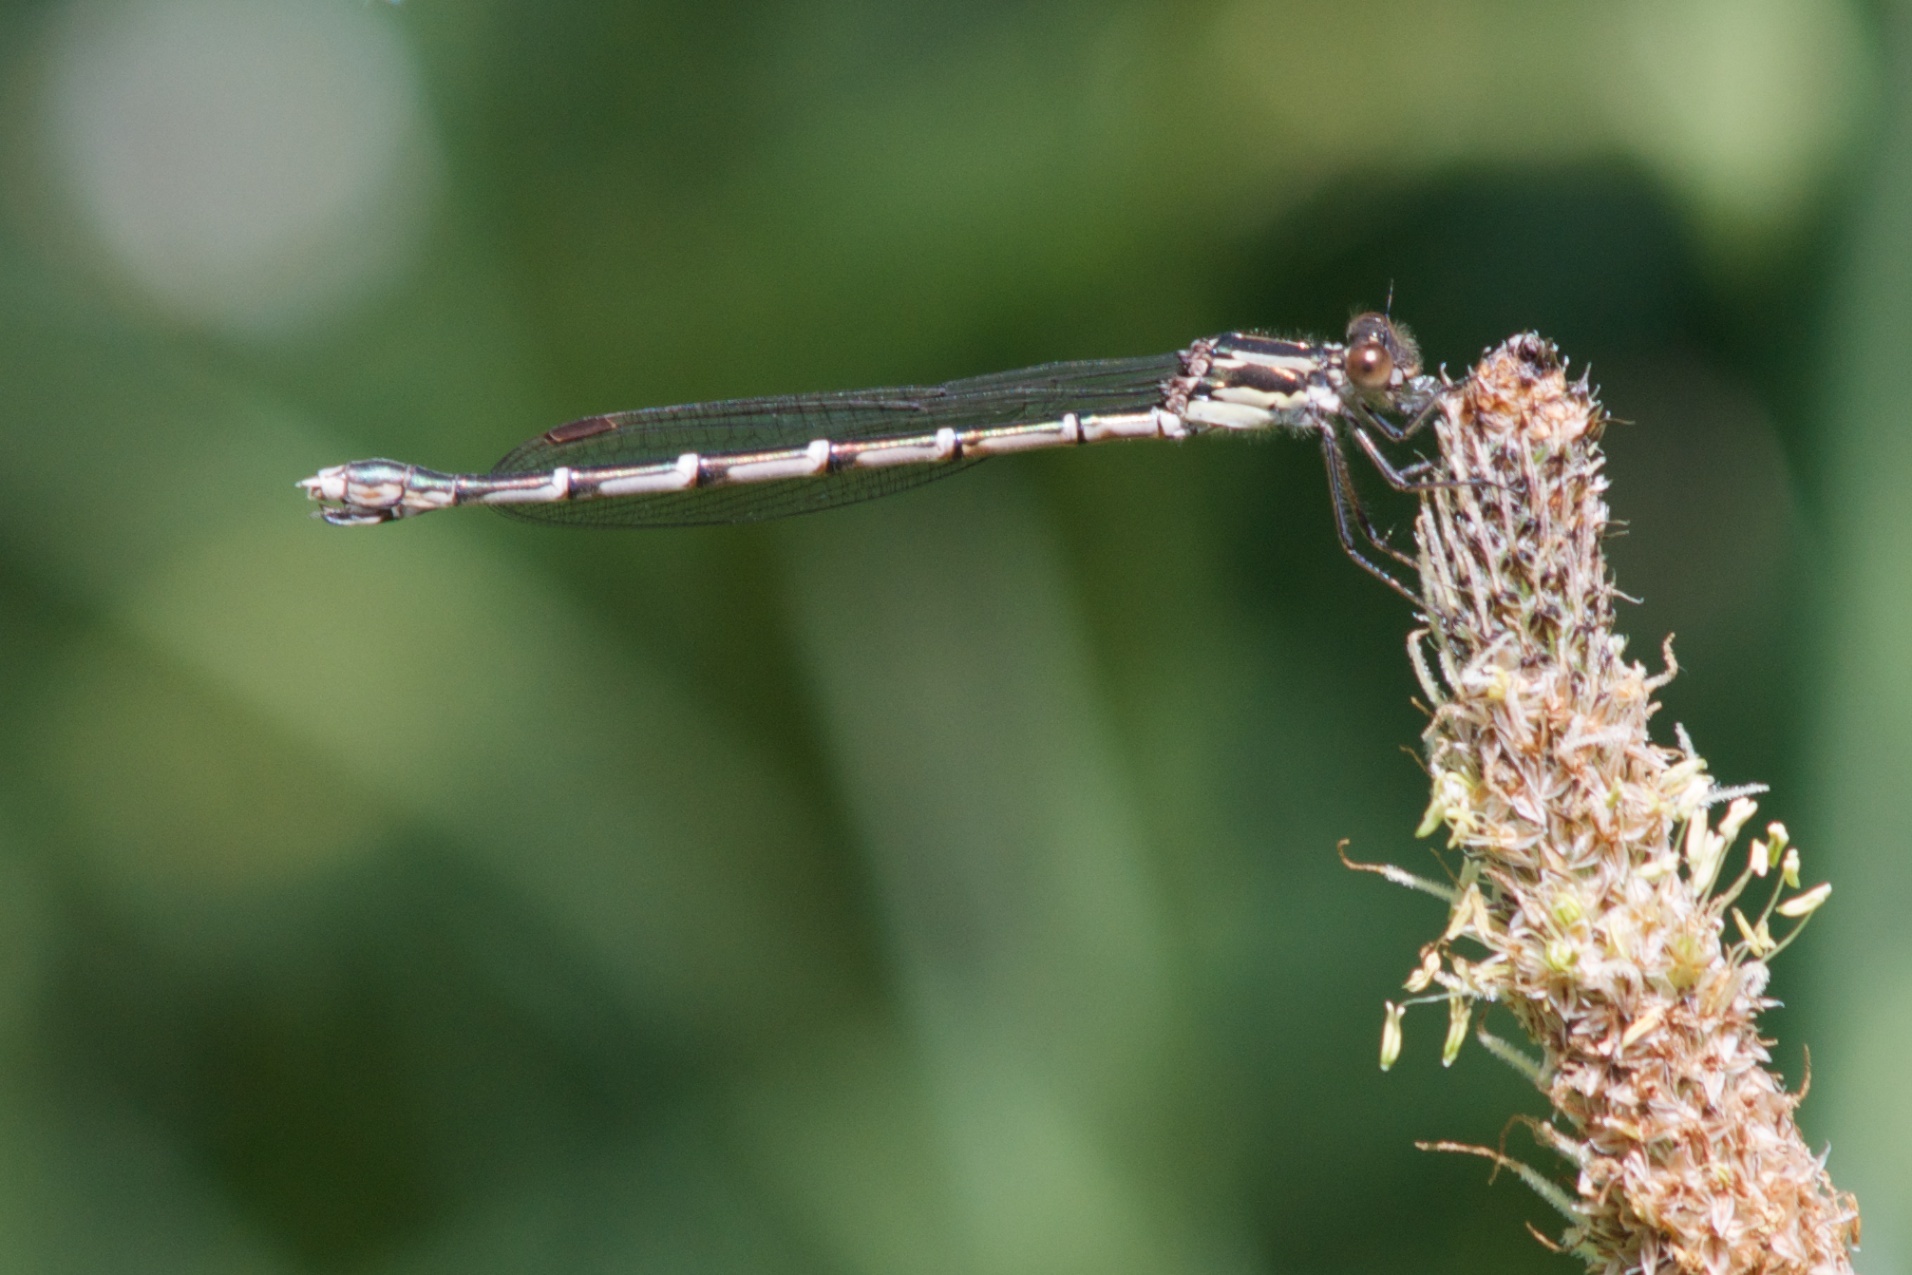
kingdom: Animalia
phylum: Arthropoda
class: Insecta
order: Odonata
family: Lestidae
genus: Austrolestes
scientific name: Austrolestes colensonis
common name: Blue damselfly
